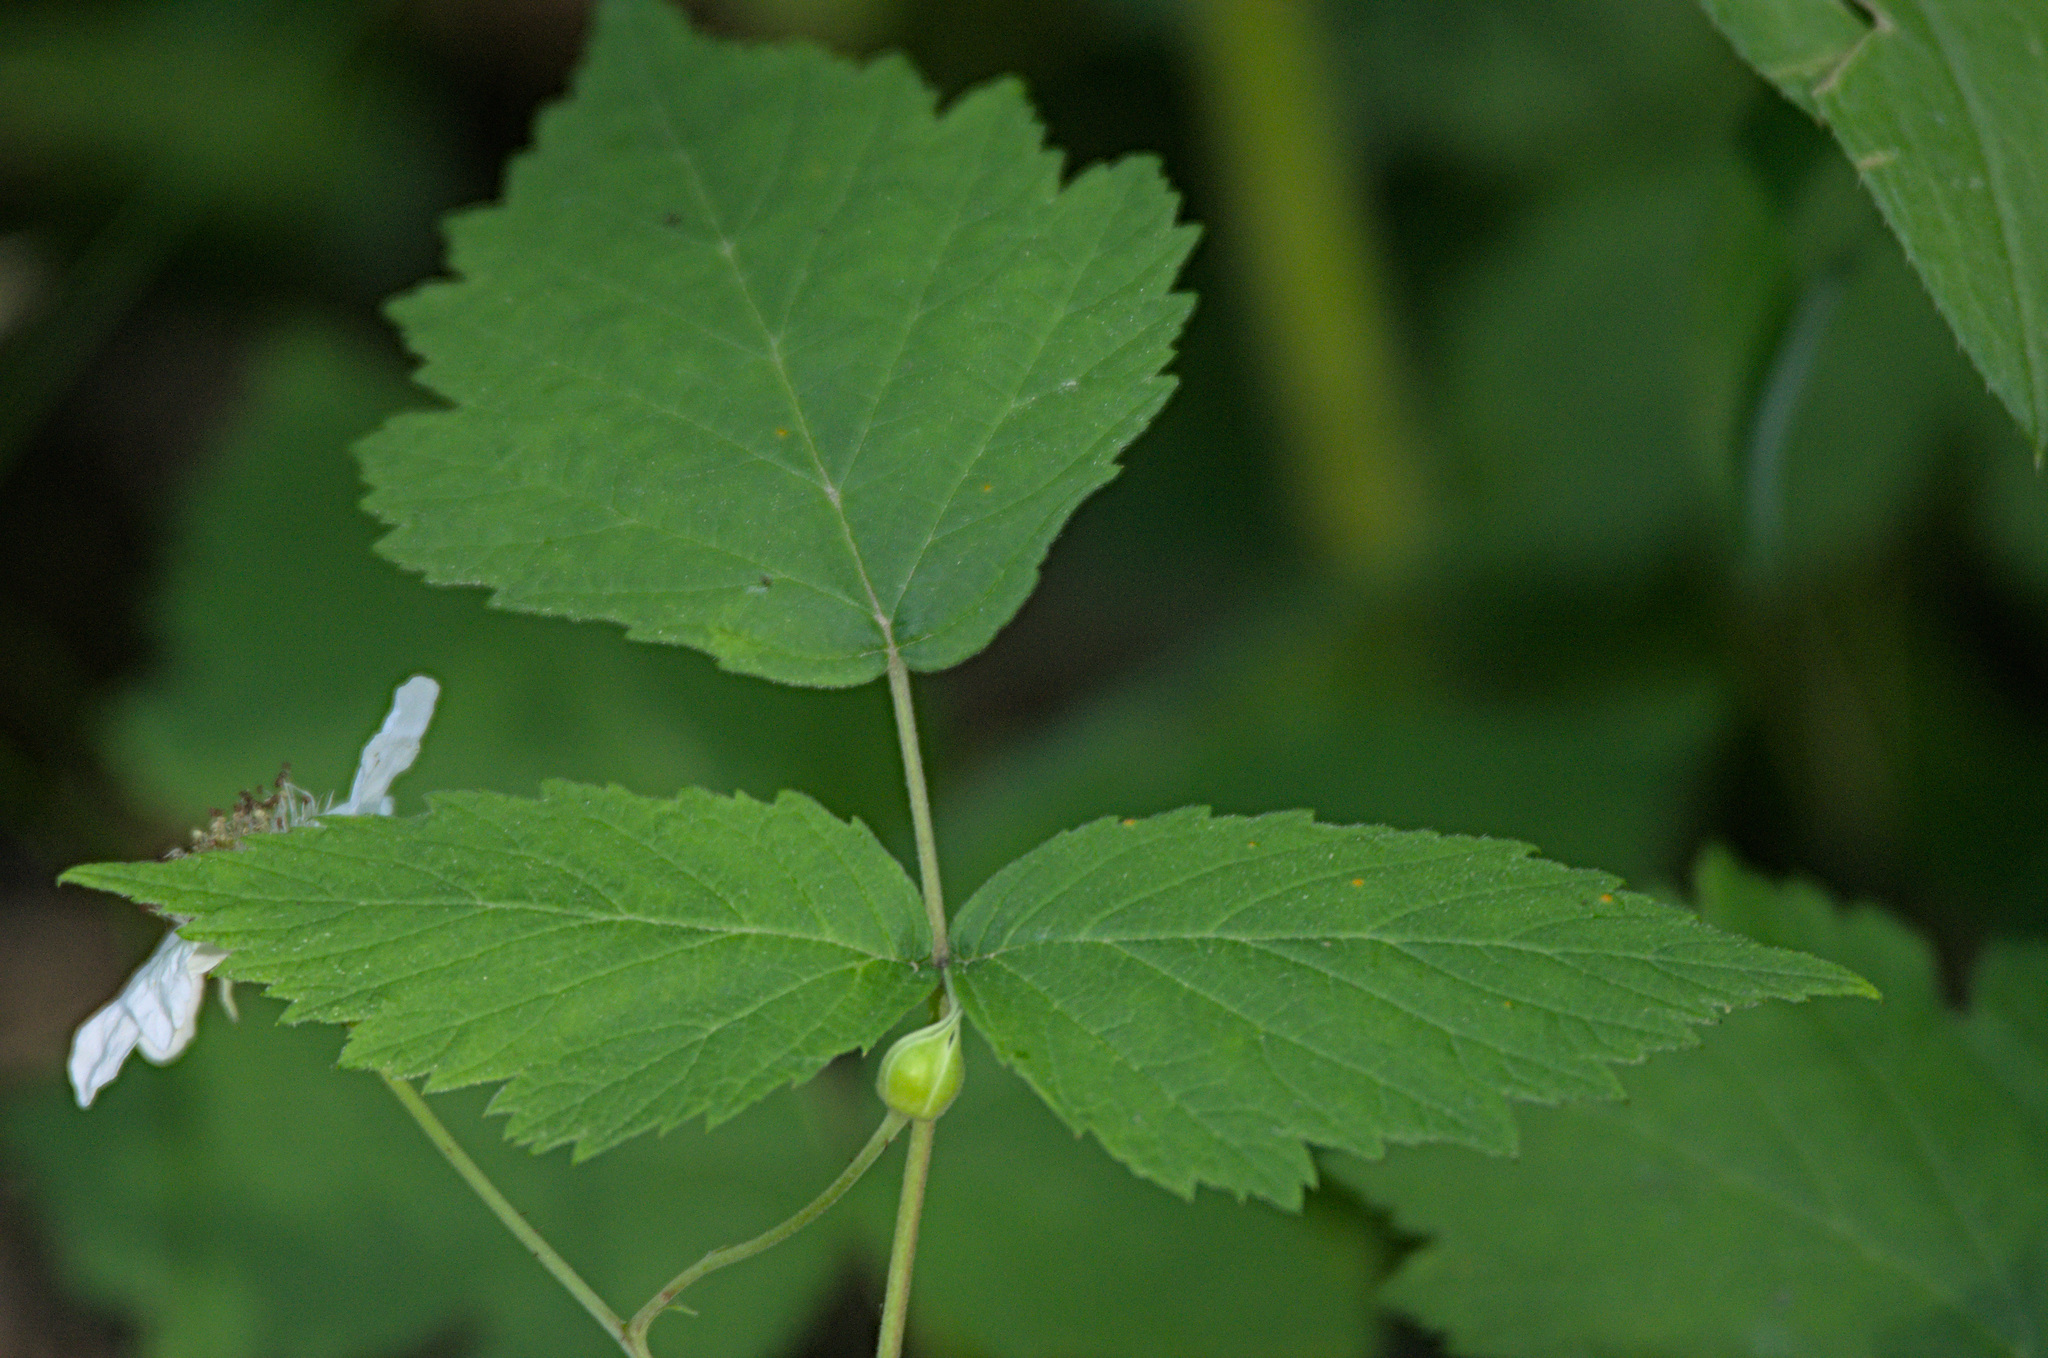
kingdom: Plantae
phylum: Tracheophyta
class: Magnoliopsida
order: Rosales
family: Rosaceae
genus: Rubus
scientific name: Rubus caesius
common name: Dewberry
